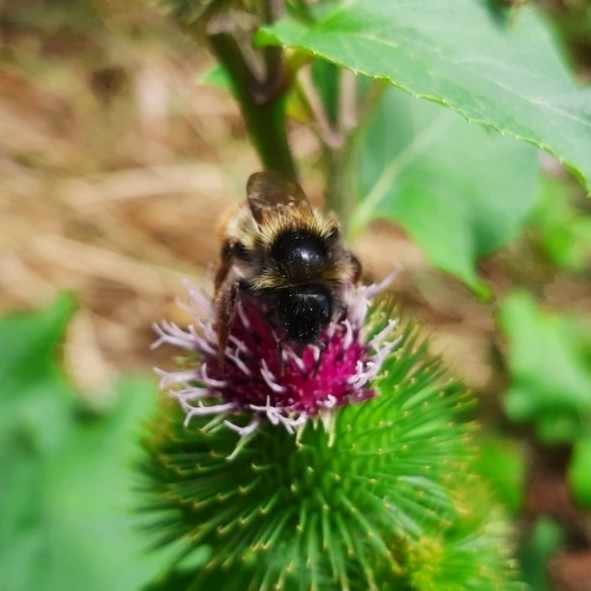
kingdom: Animalia
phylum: Arthropoda
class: Insecta
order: Hymenoptera
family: Apidae
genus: Bombus
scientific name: Bombus rupestris
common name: Hill cuckoo-bee
